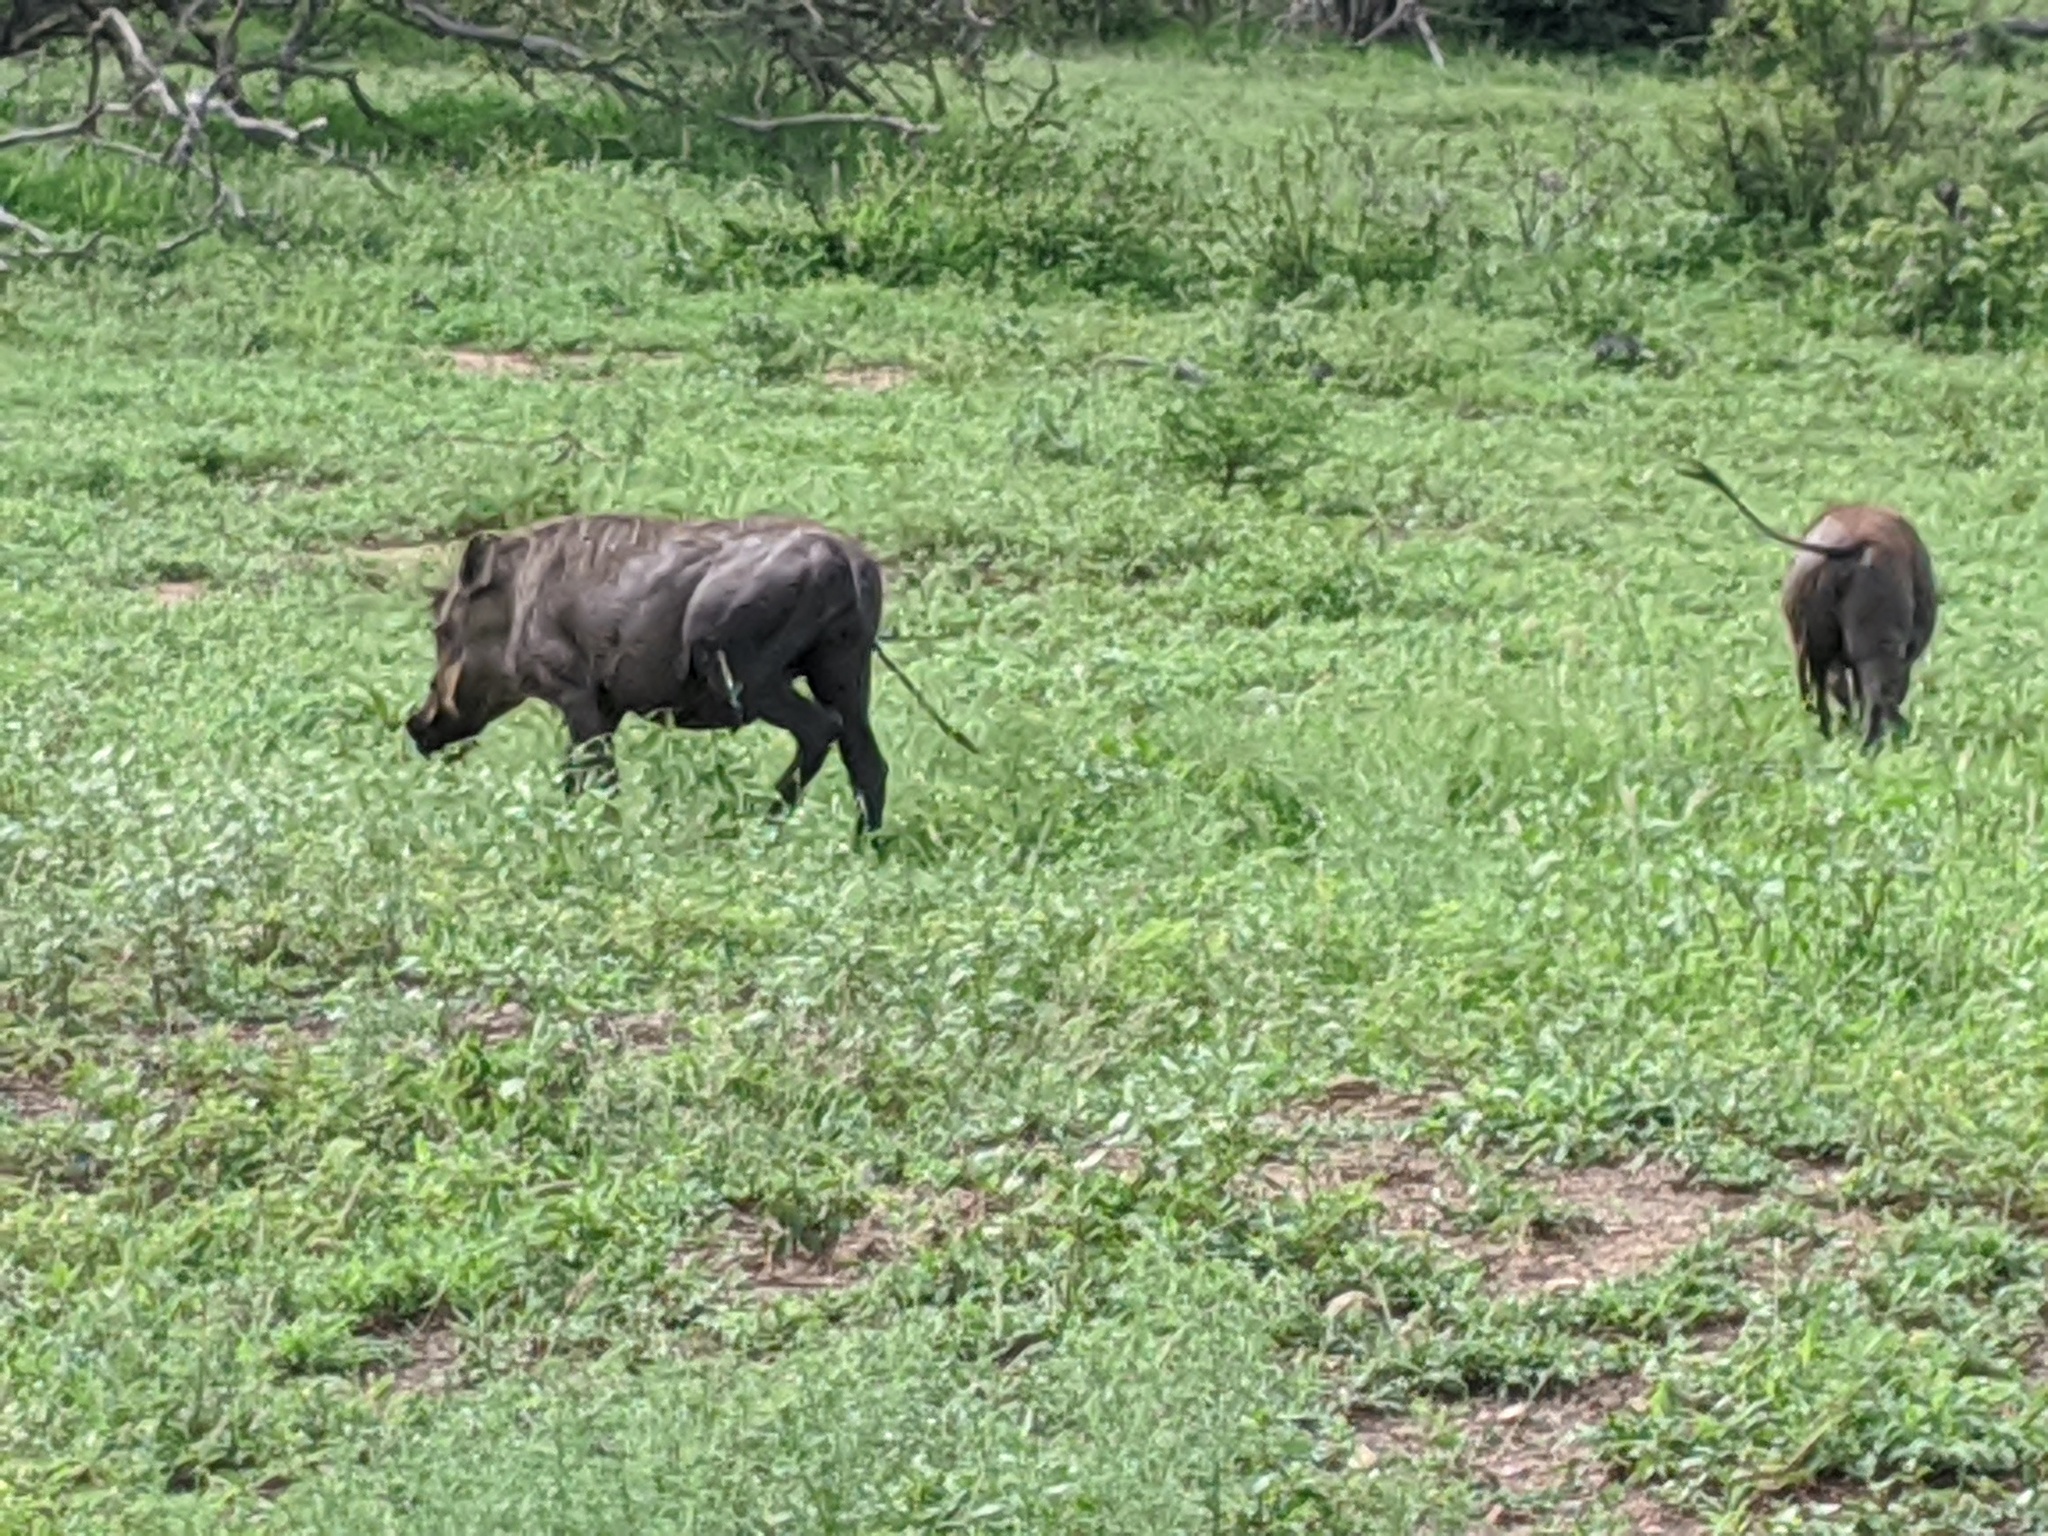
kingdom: Animalia
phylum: Chordata
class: Mammalia
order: Artiodactyla
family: Suidae
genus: Phacochoerus
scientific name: Phacochoerus africanus
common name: Common warthog
